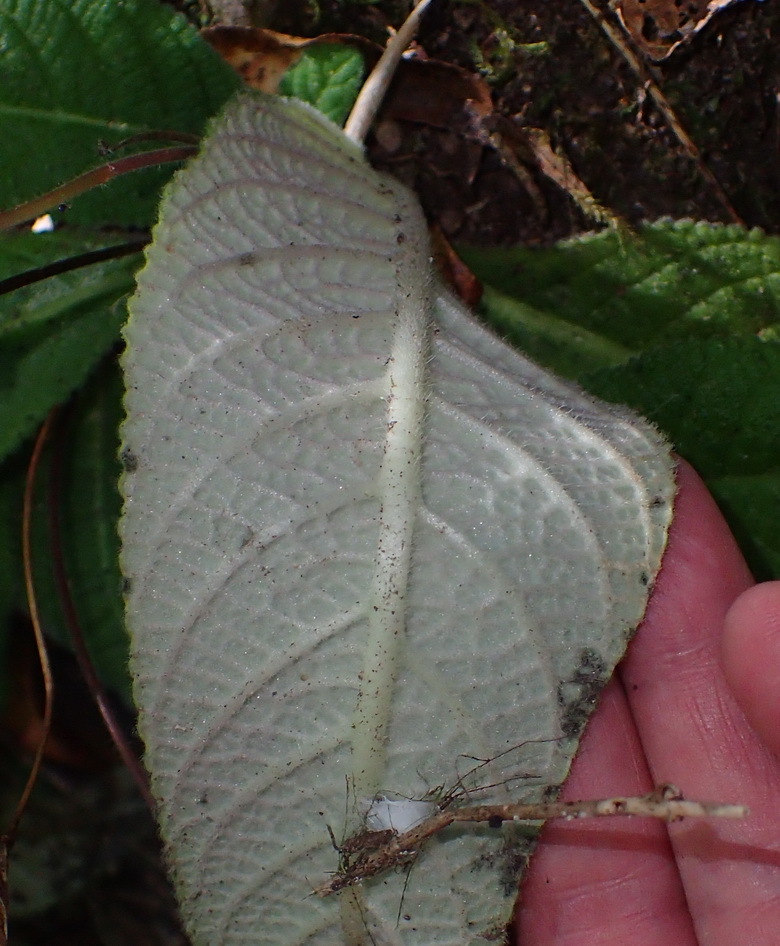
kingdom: Plantae
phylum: Tracheophyta
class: Magnoliopsida
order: Lamiales
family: Gesneriaceae
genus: Streptocarpus
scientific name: Streptocarpus rexii
